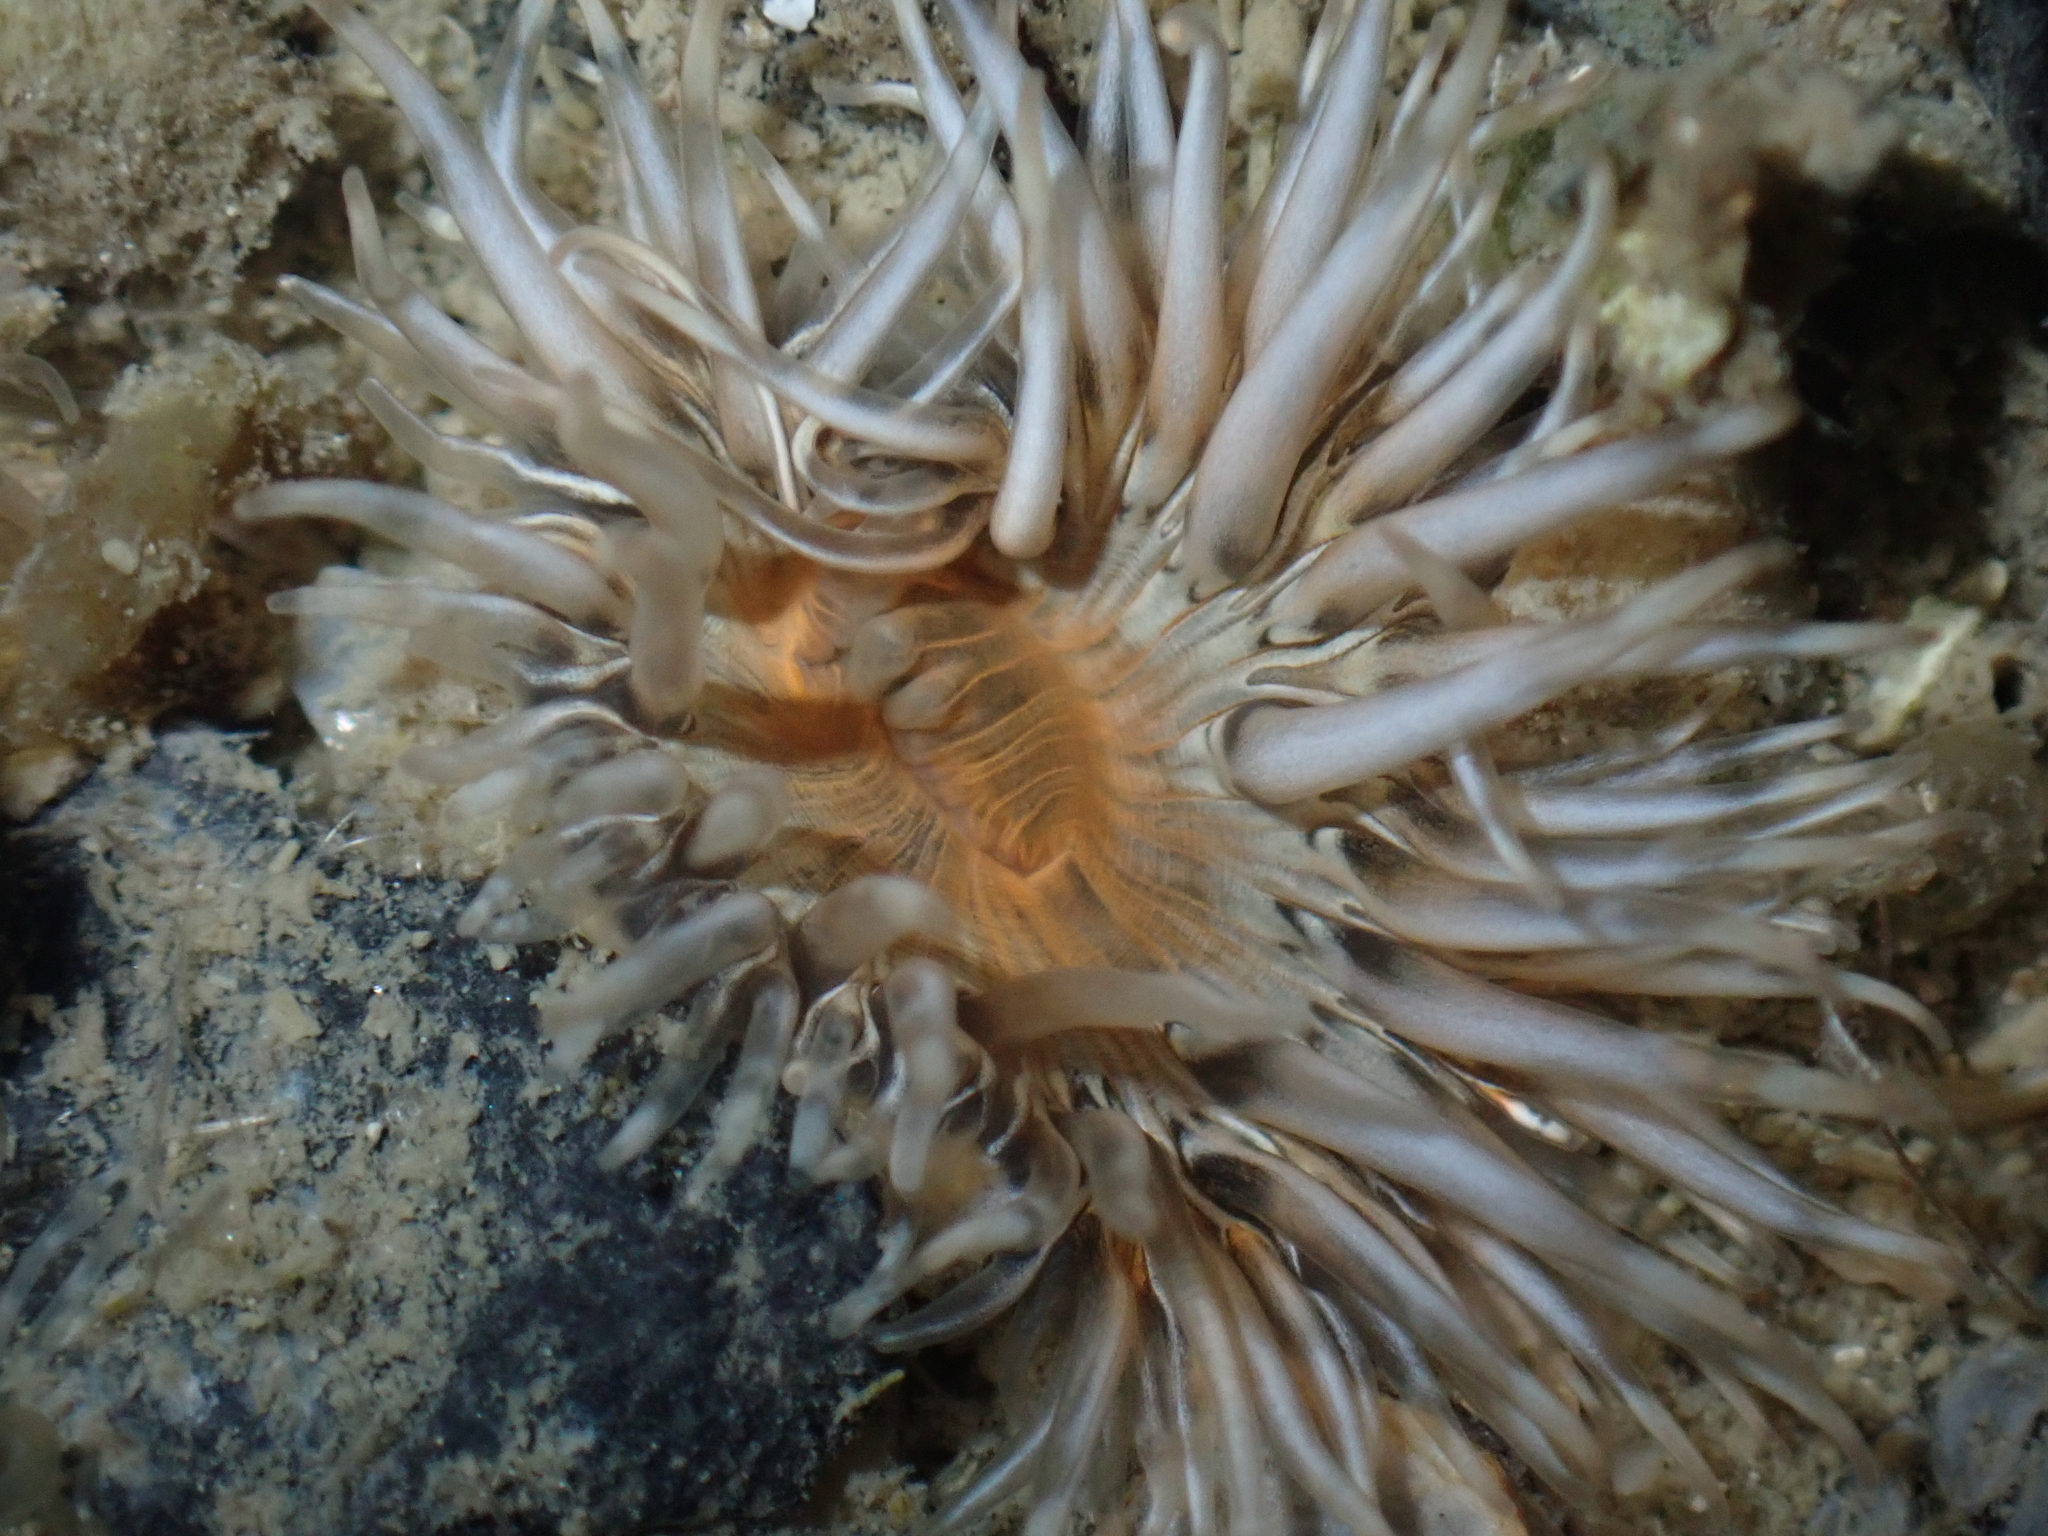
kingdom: Animalia
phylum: Cnidaria
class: Anthozoa
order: Actiniaria
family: Sagartiidae
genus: Cylista
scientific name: Cylista troglodytes
